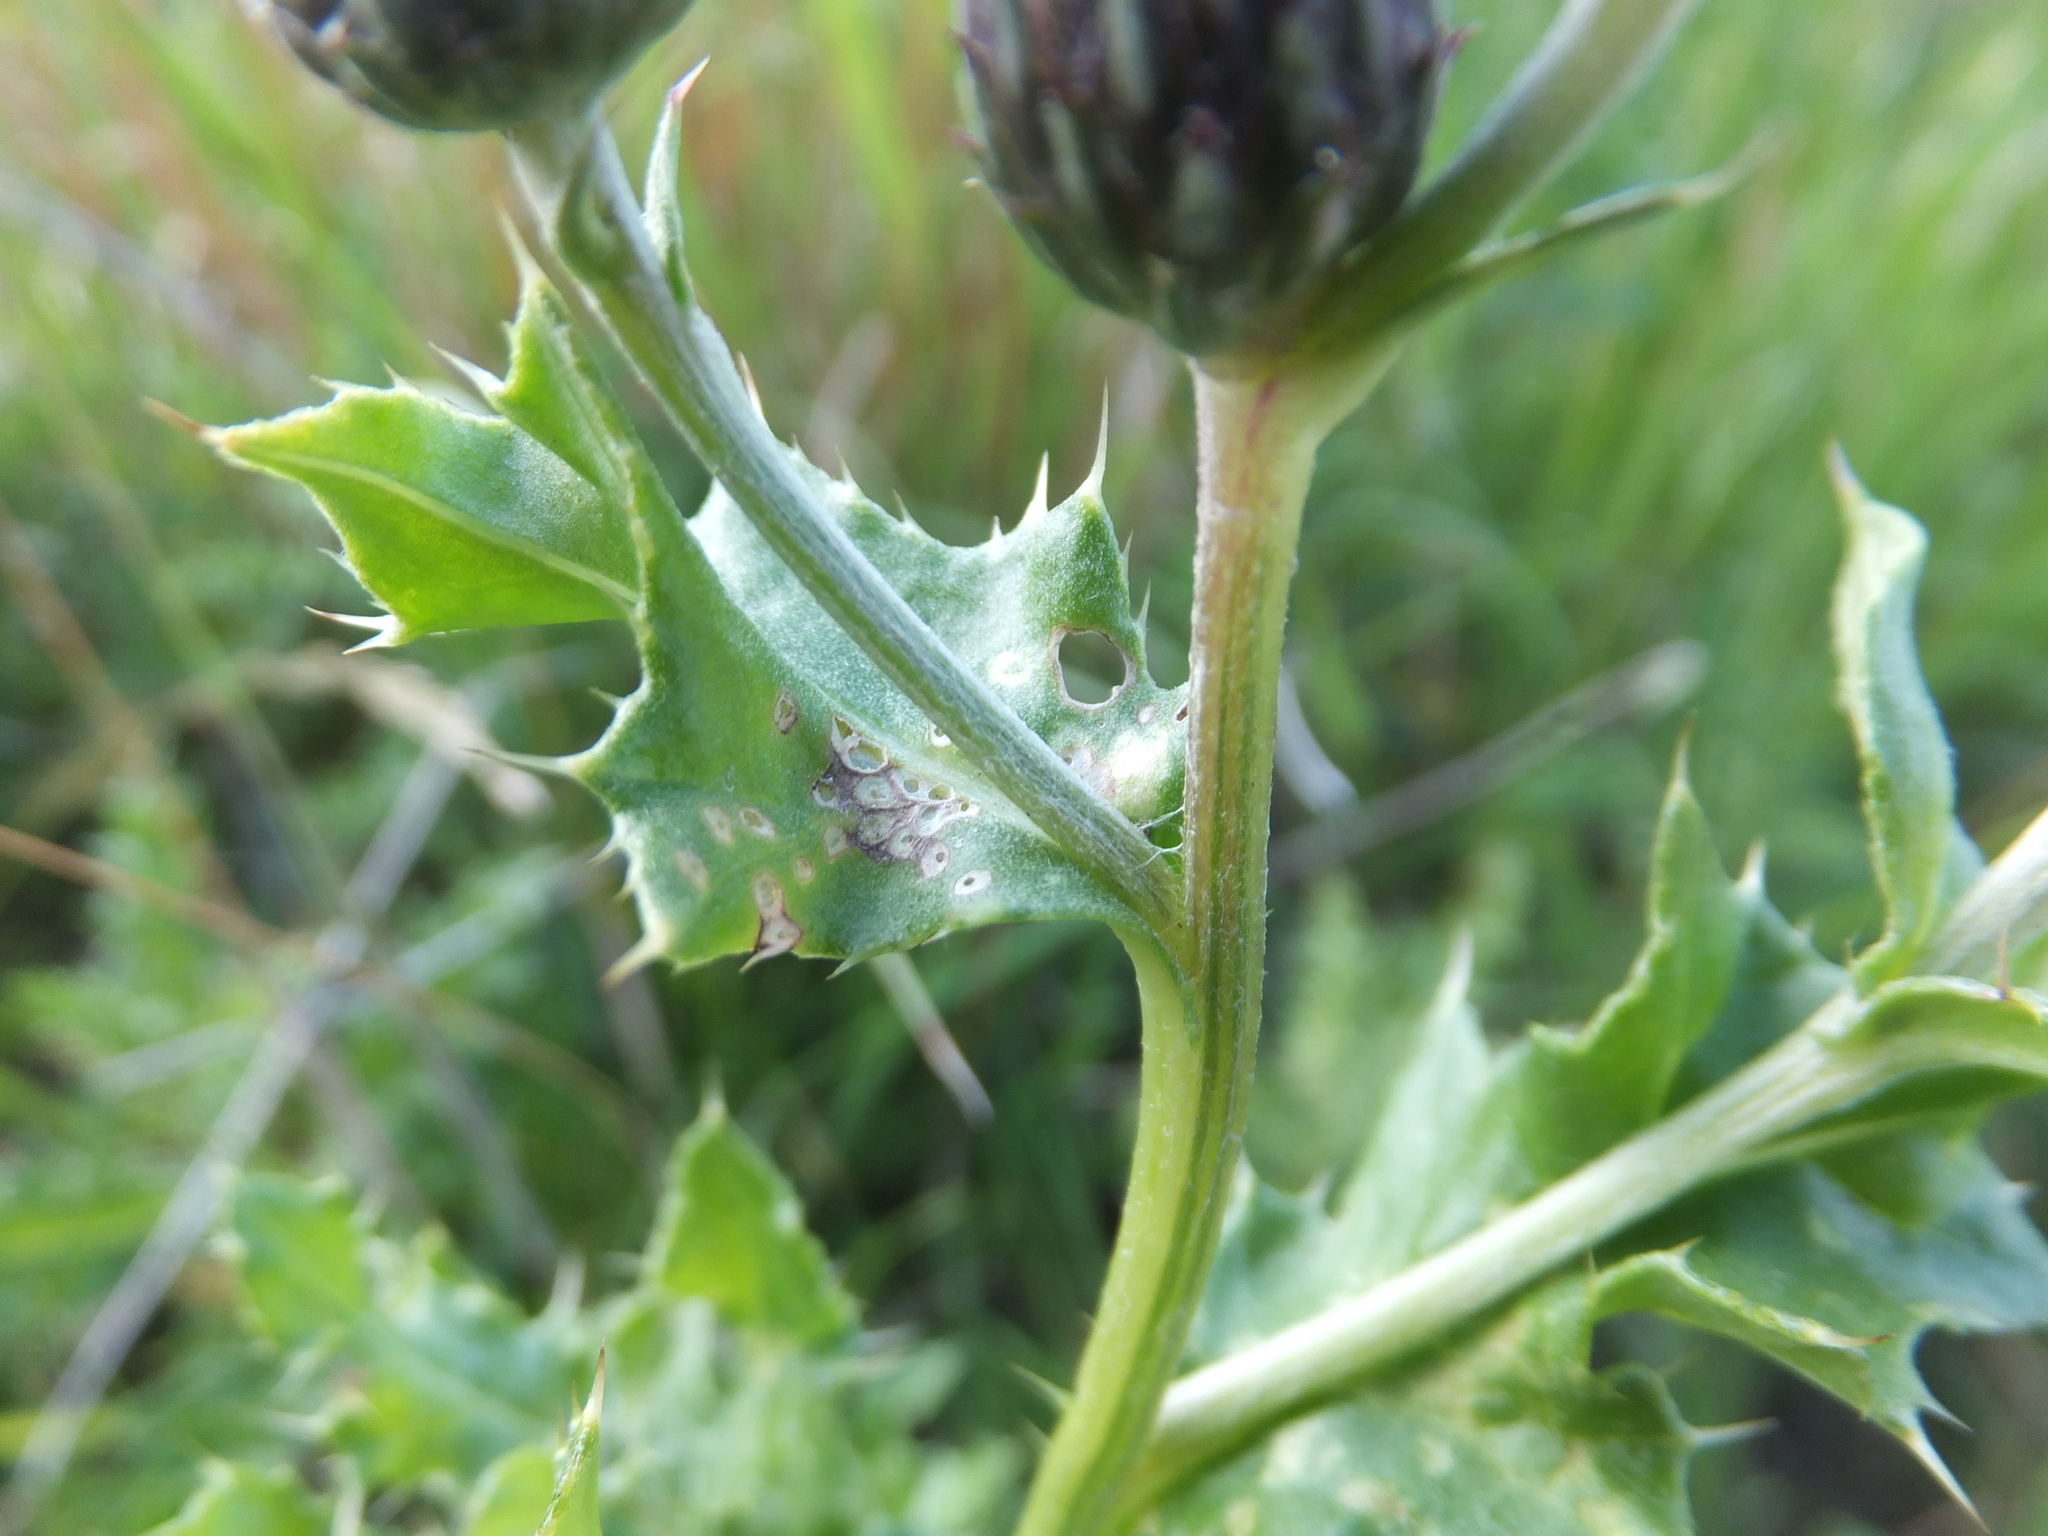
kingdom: Plantae
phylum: Tracheophyta
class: Magnoliopsida
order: Asterales
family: Asteraceae
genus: Cirsium
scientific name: Cirsium arvense
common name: Creeping thistle
